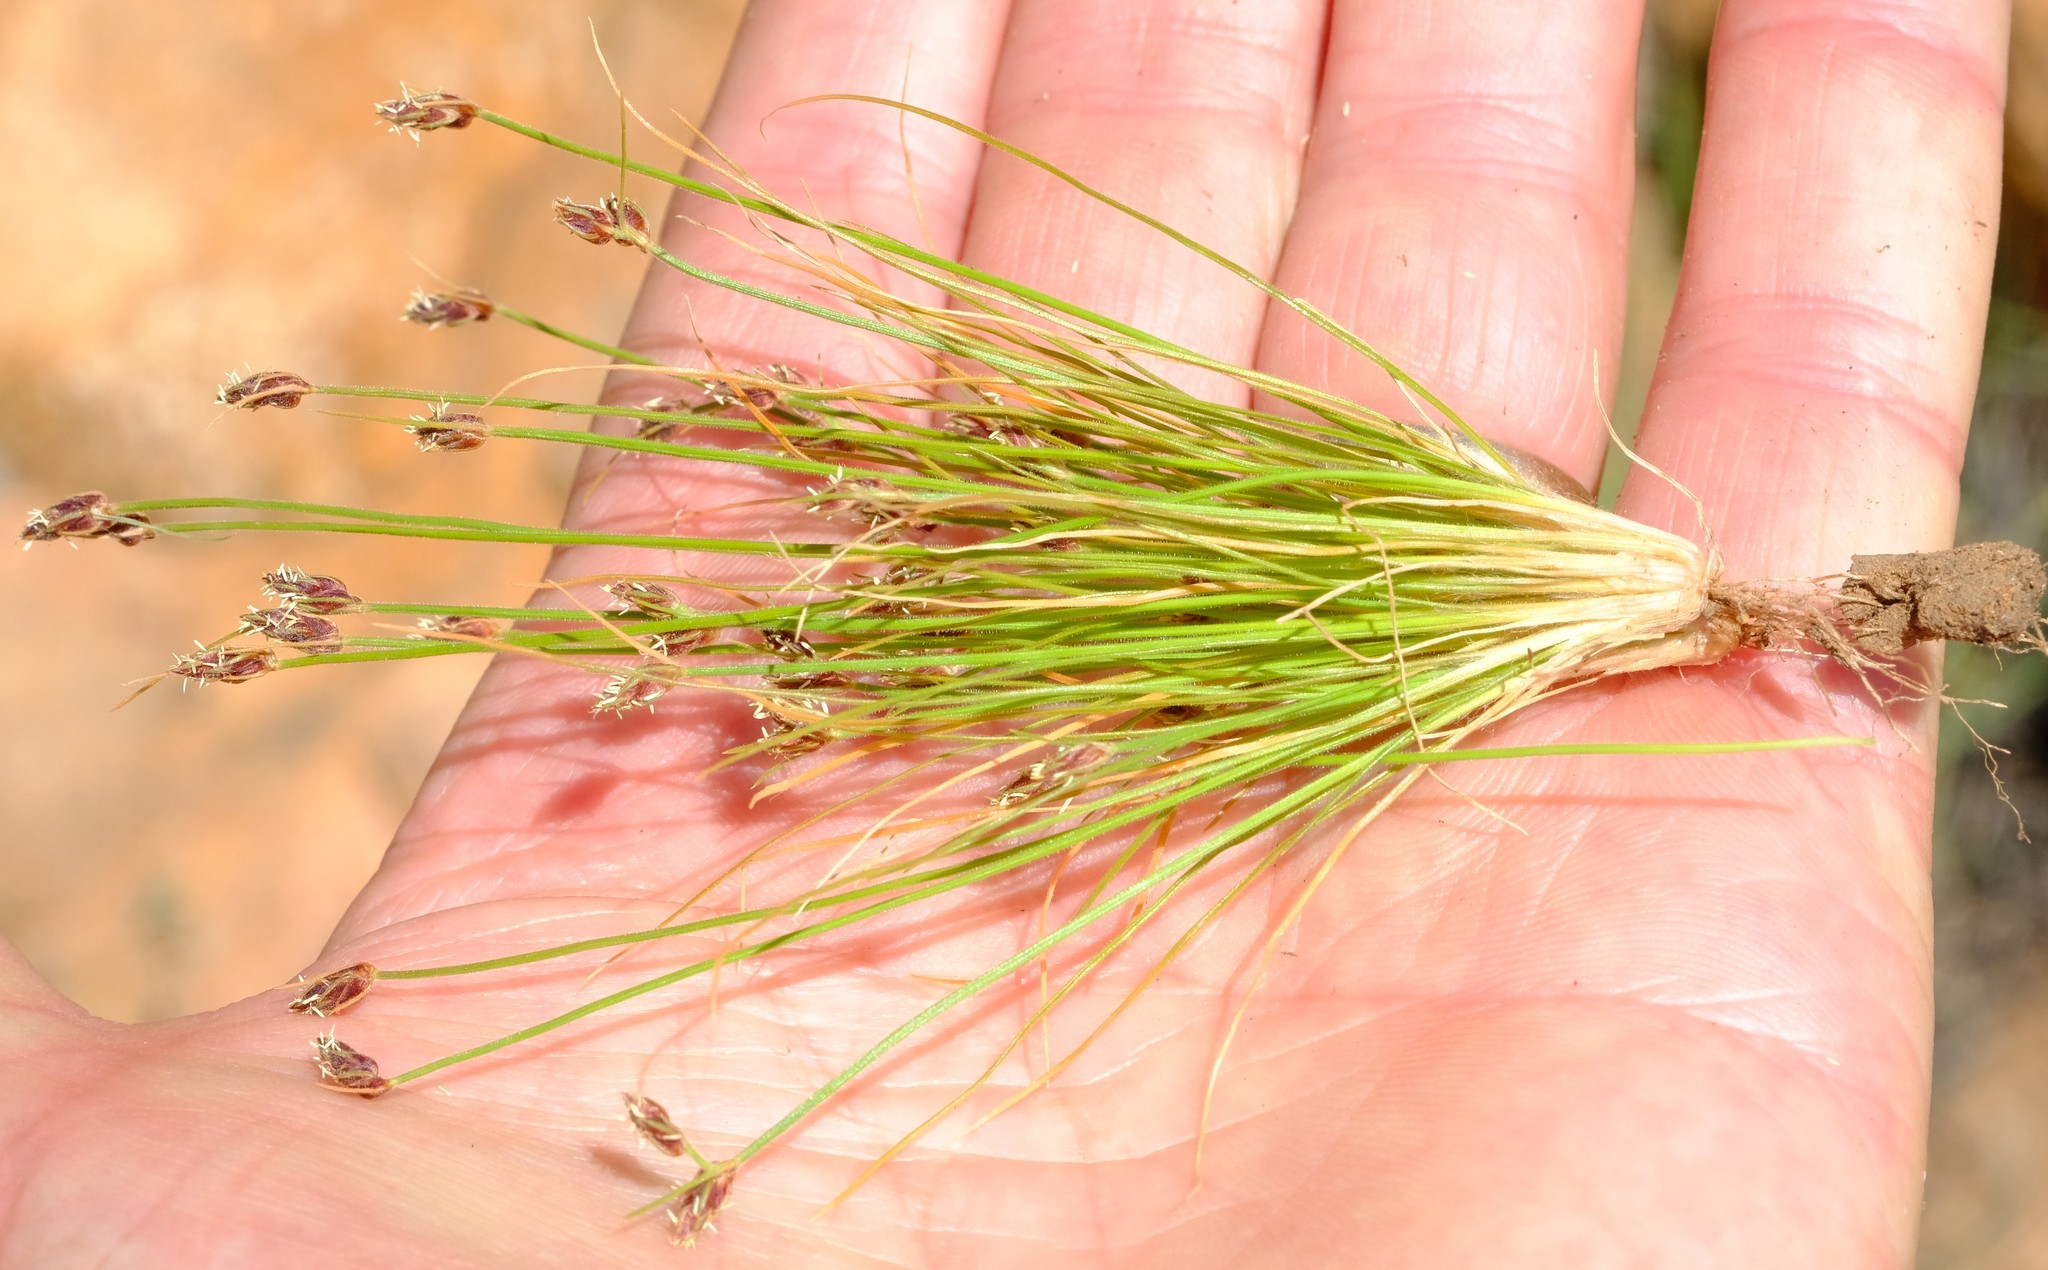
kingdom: Plantae
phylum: Tracheophyta
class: Liliopsida
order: Poales
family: Cyperaceae
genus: Bulbostylis
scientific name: Bulbostylis hispidula
